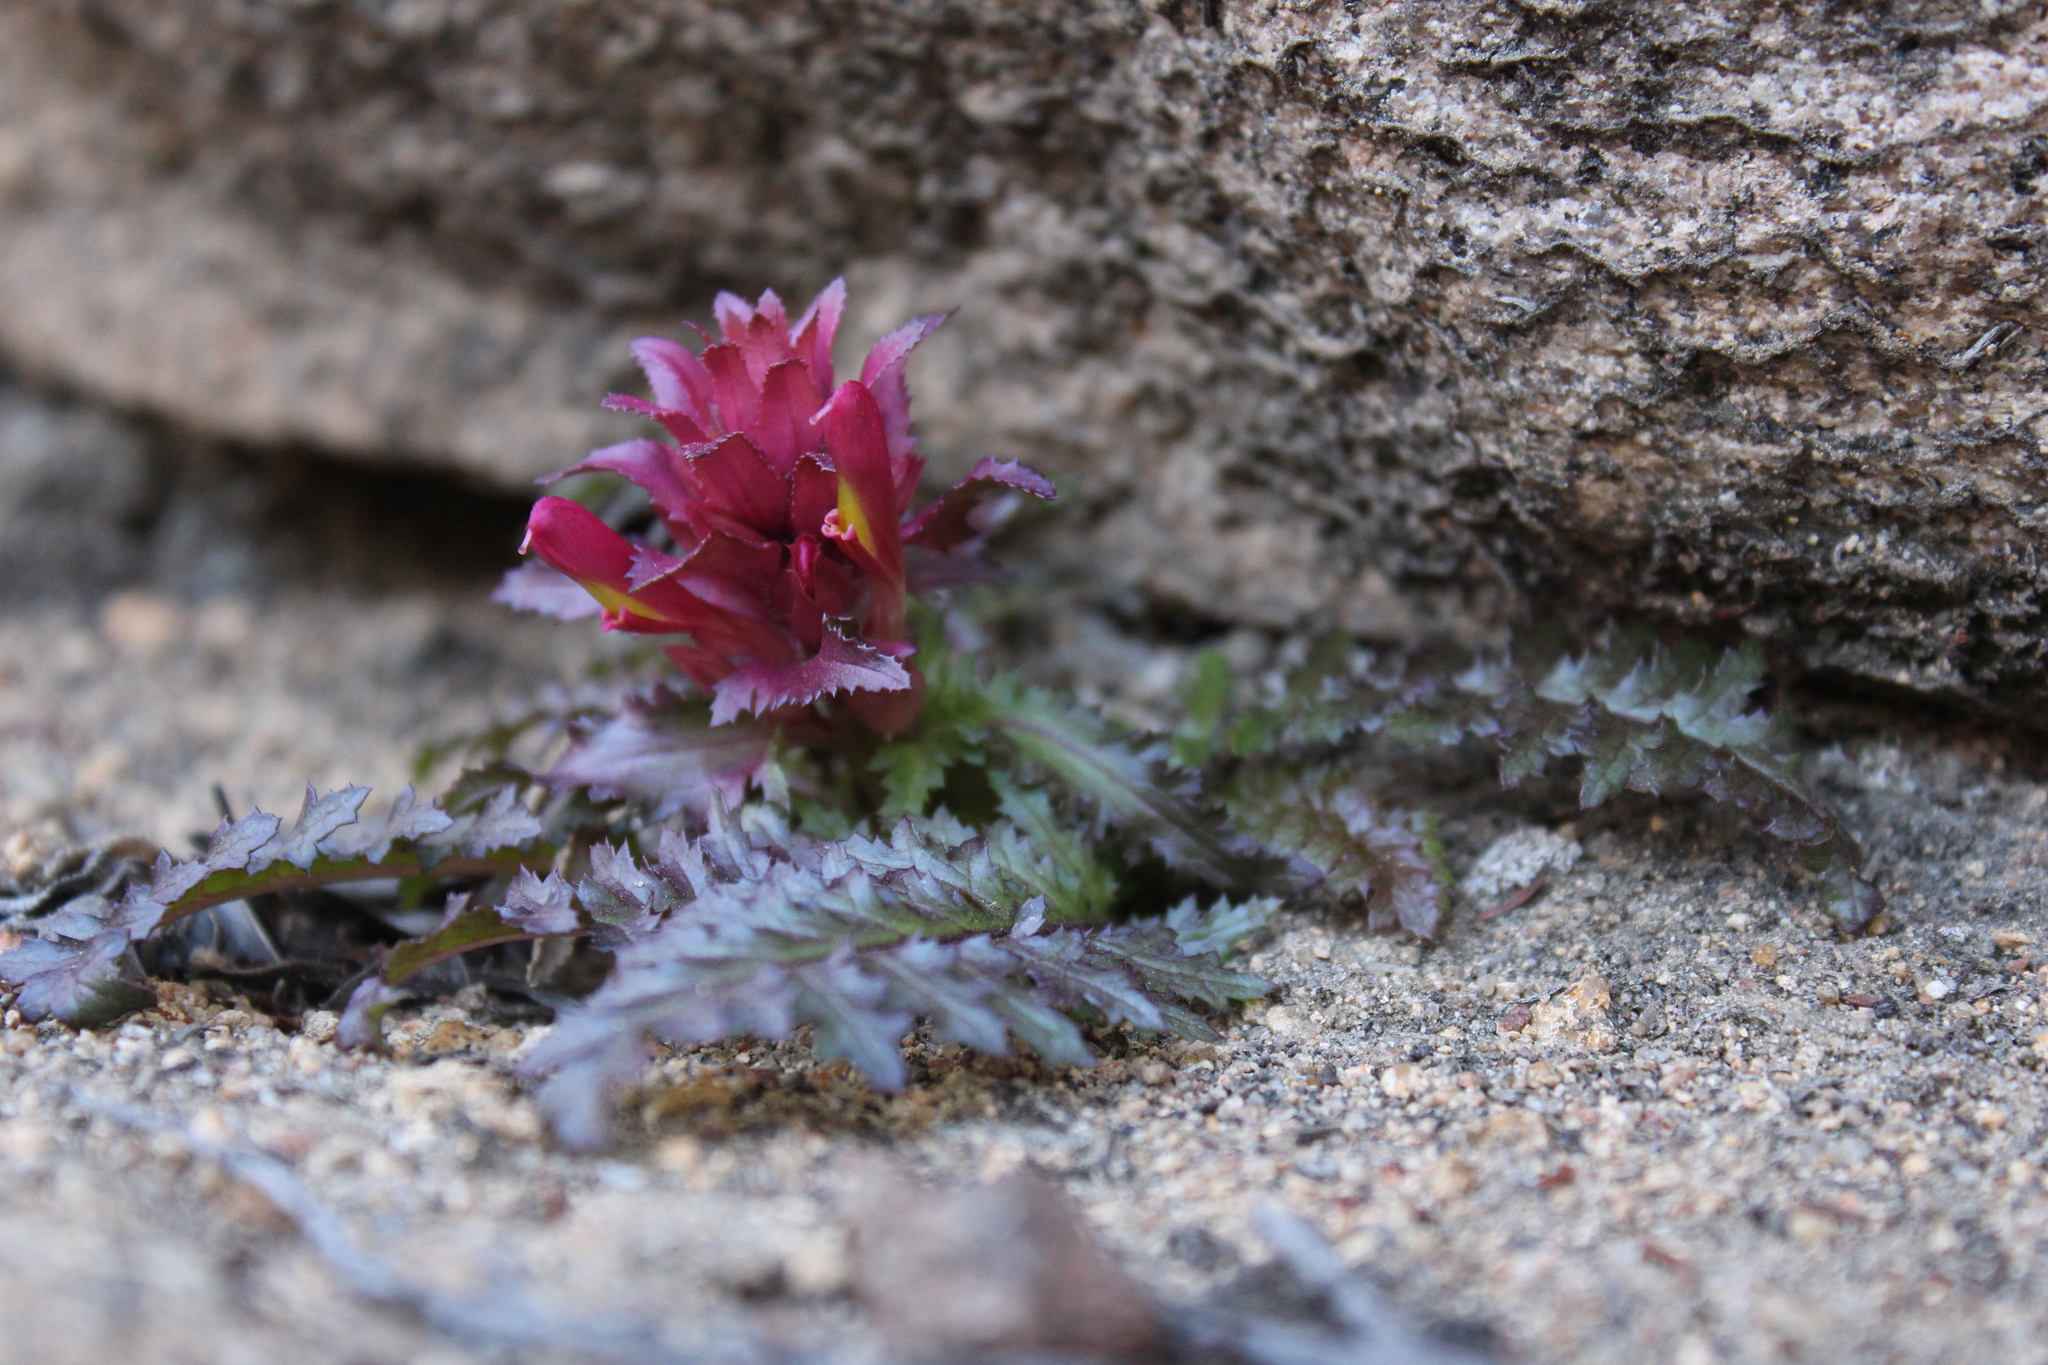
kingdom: Plantae
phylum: Tracheophyta
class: Magnoliopsida
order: Lamiales
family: Orobanchaceae
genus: Pedicularis
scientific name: Pedicularis densiflora
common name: Indian warrior
